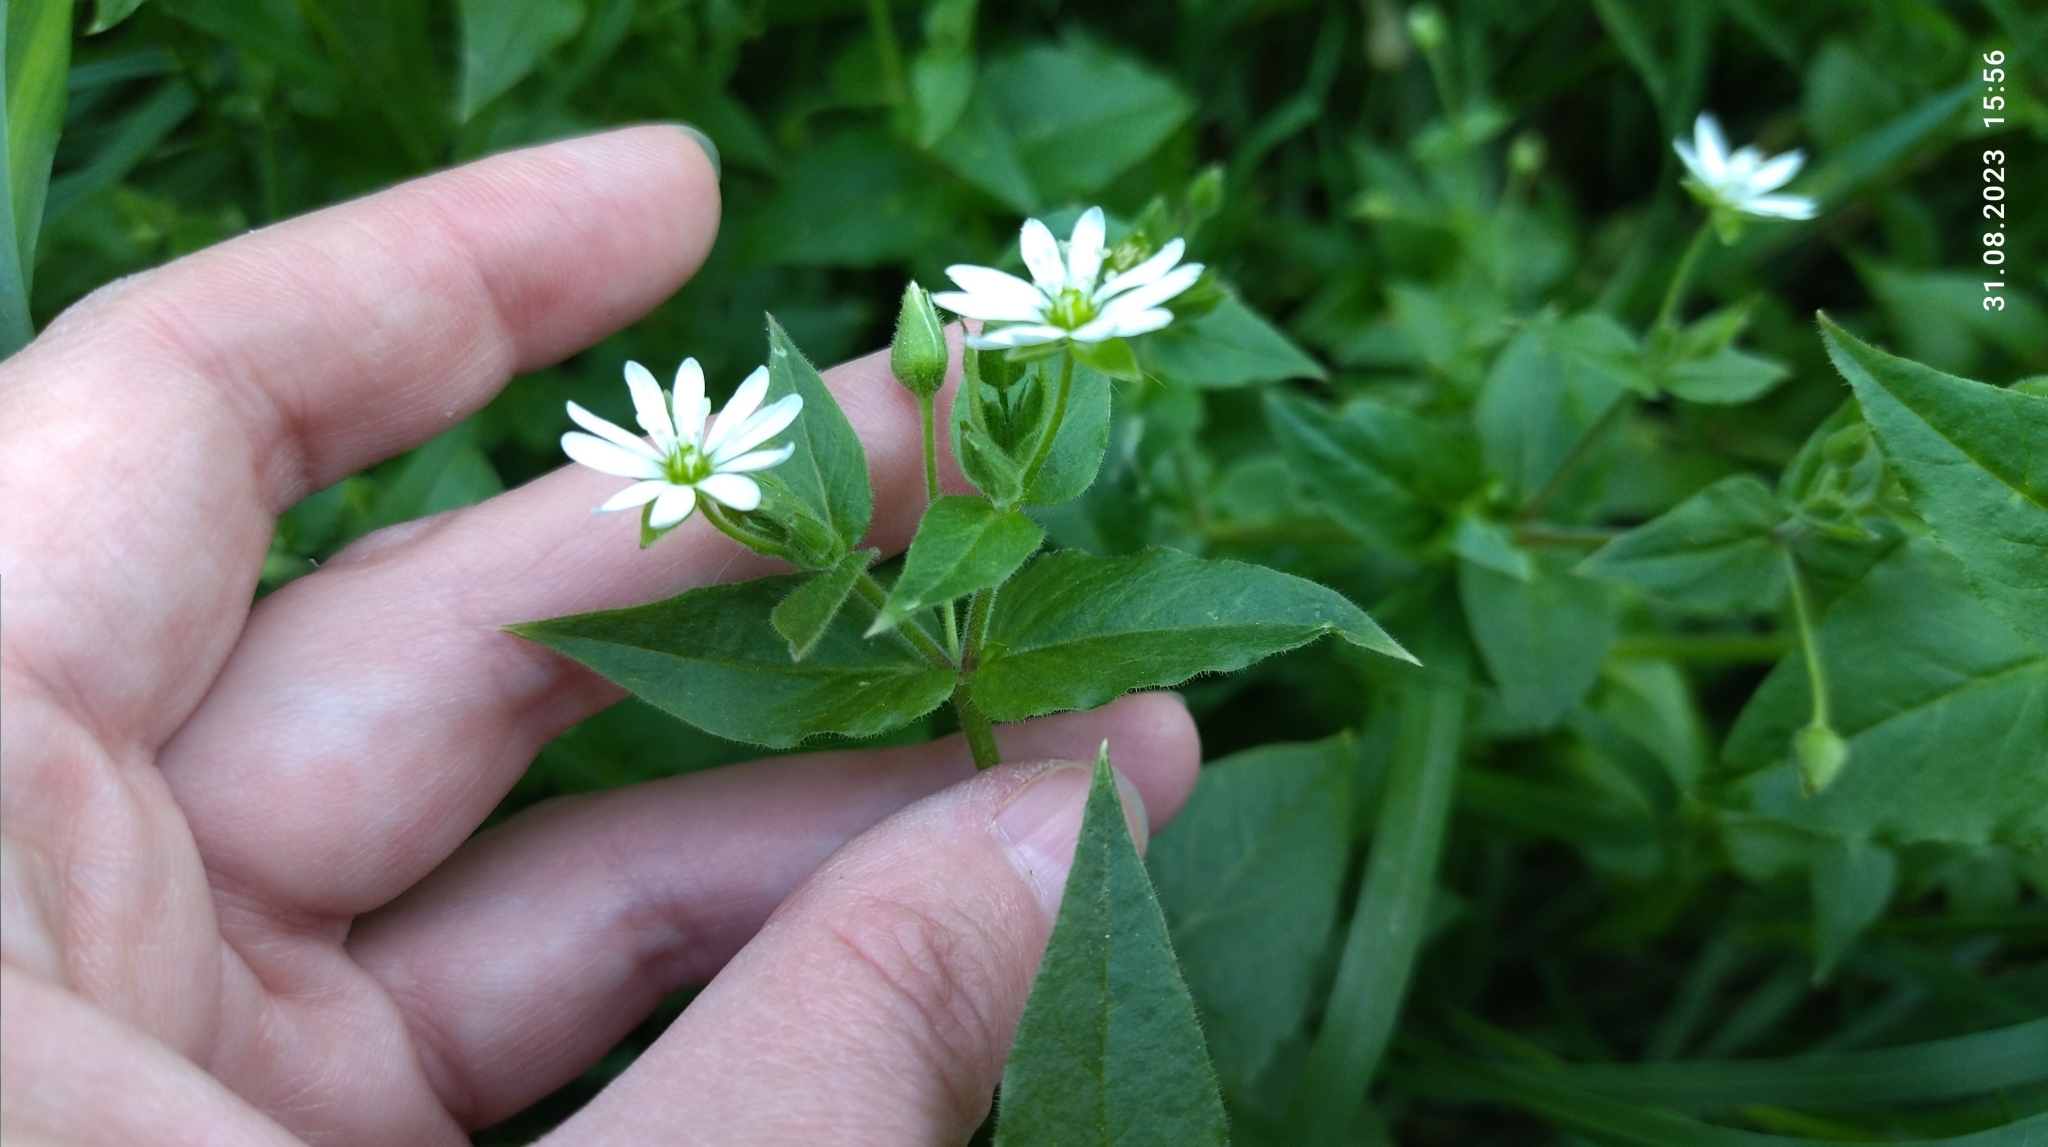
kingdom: Plantae
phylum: Tracheophyta
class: Magnoliopsida
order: Caryophyllales
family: Caryophyllaceae
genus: Stellaria
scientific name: Stellaria aquatica
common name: Water chickweed
